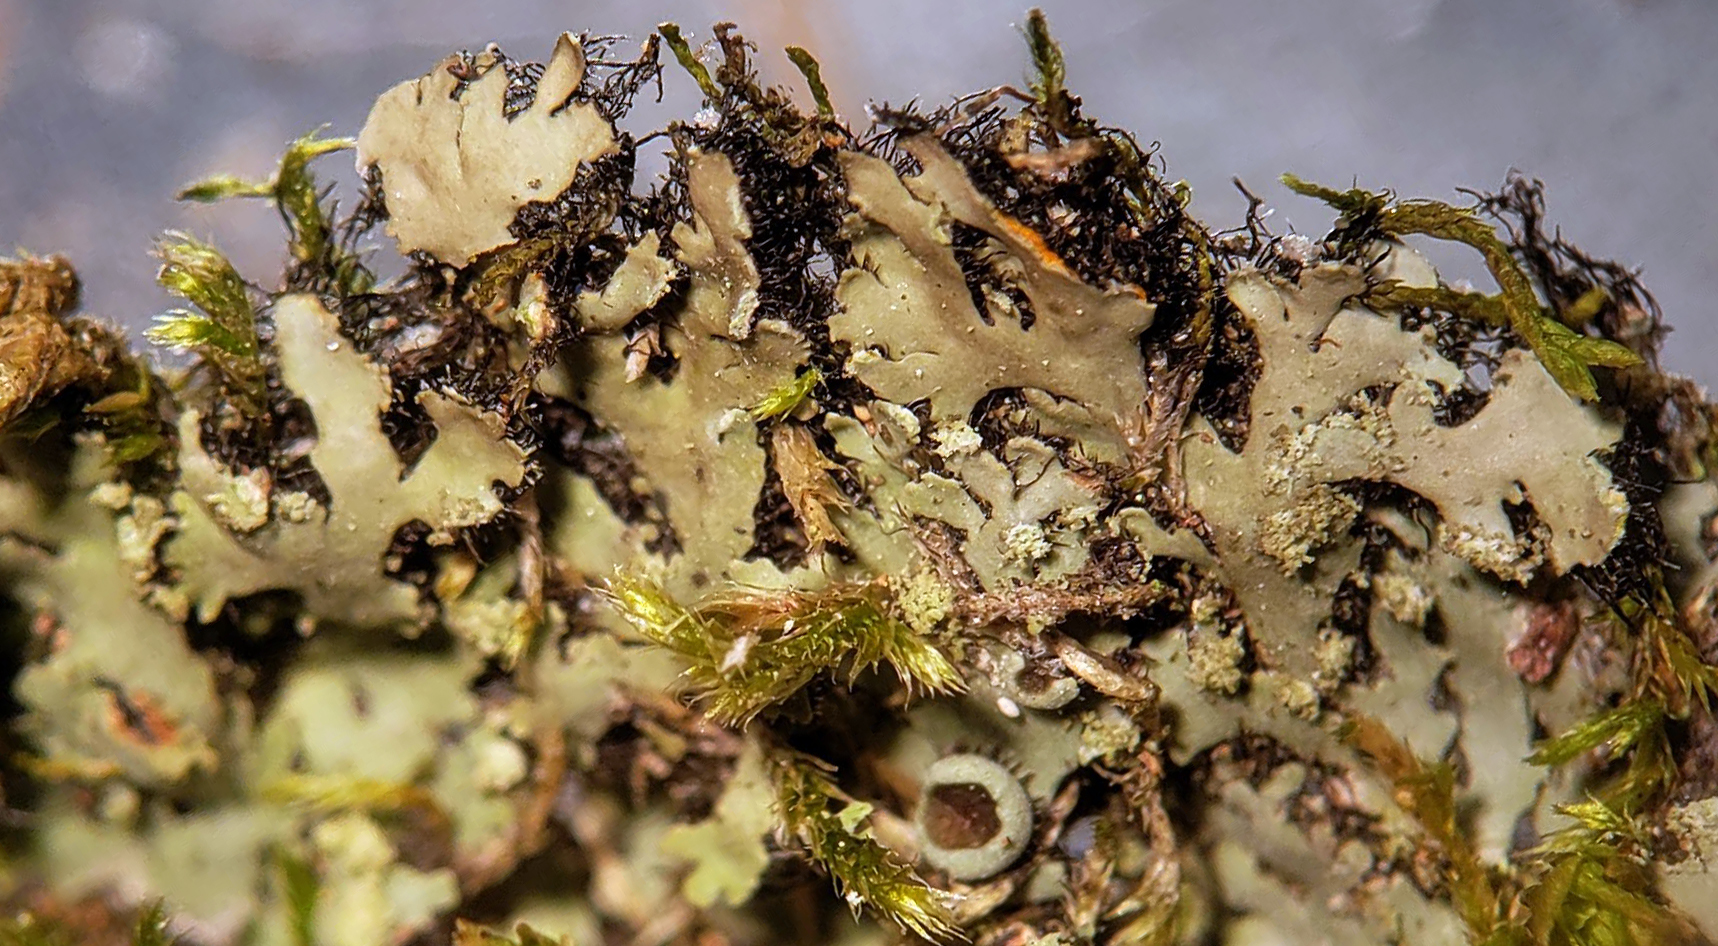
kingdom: Fungi
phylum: Ascomycota
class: Lecanoromycetes
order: Caliciales
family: Physciaceae
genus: Phaeophyscia
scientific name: Phaeophyscia rubropulchra
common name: Orange-cored shadow lichen
